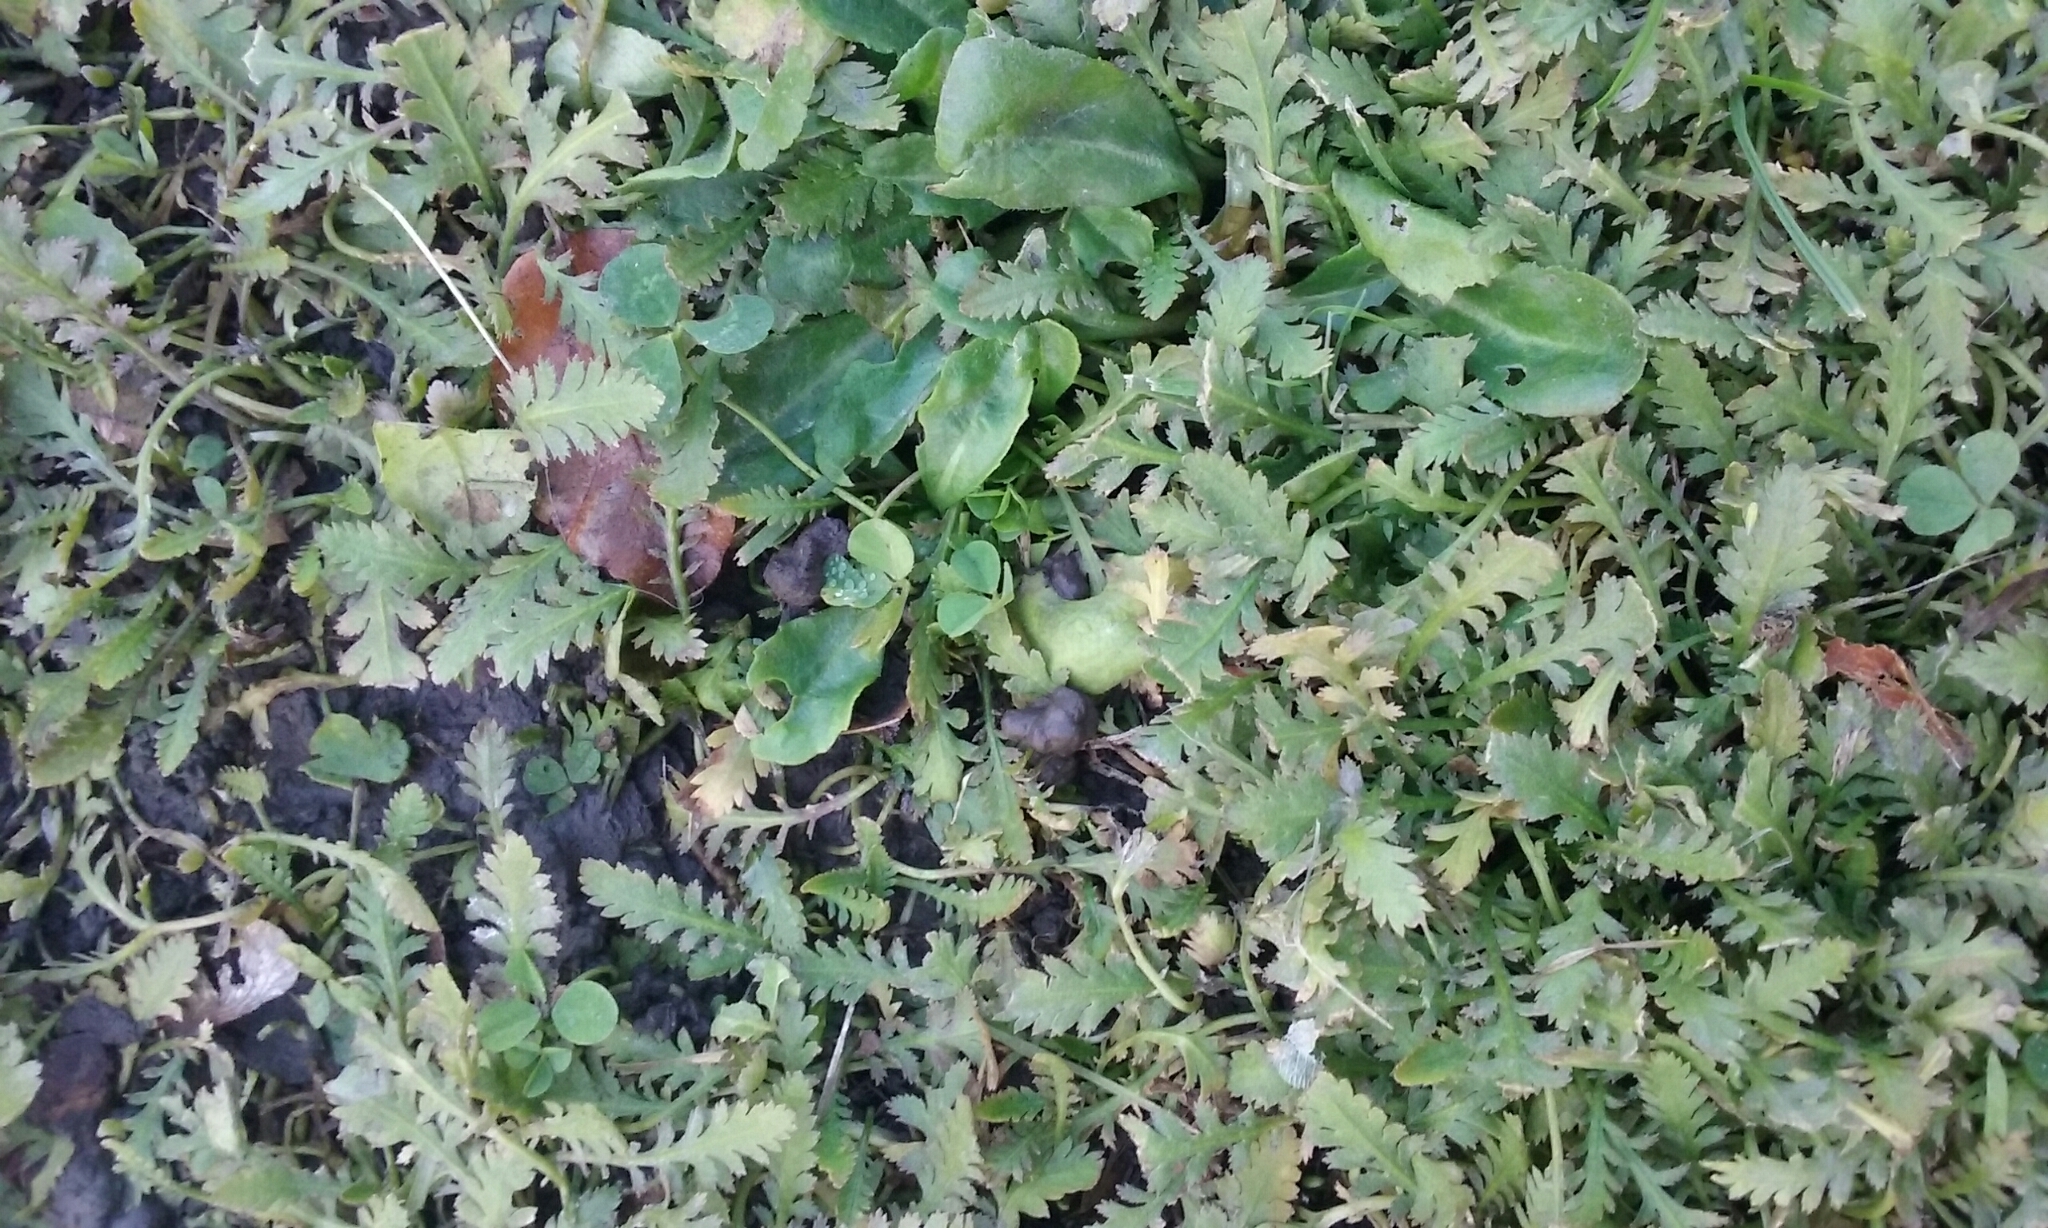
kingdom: Plantae
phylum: Tracheophyta
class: Magnoliopsida
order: Asterales
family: Asteraceae
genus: Leptinella
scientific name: Leptinella dioica
